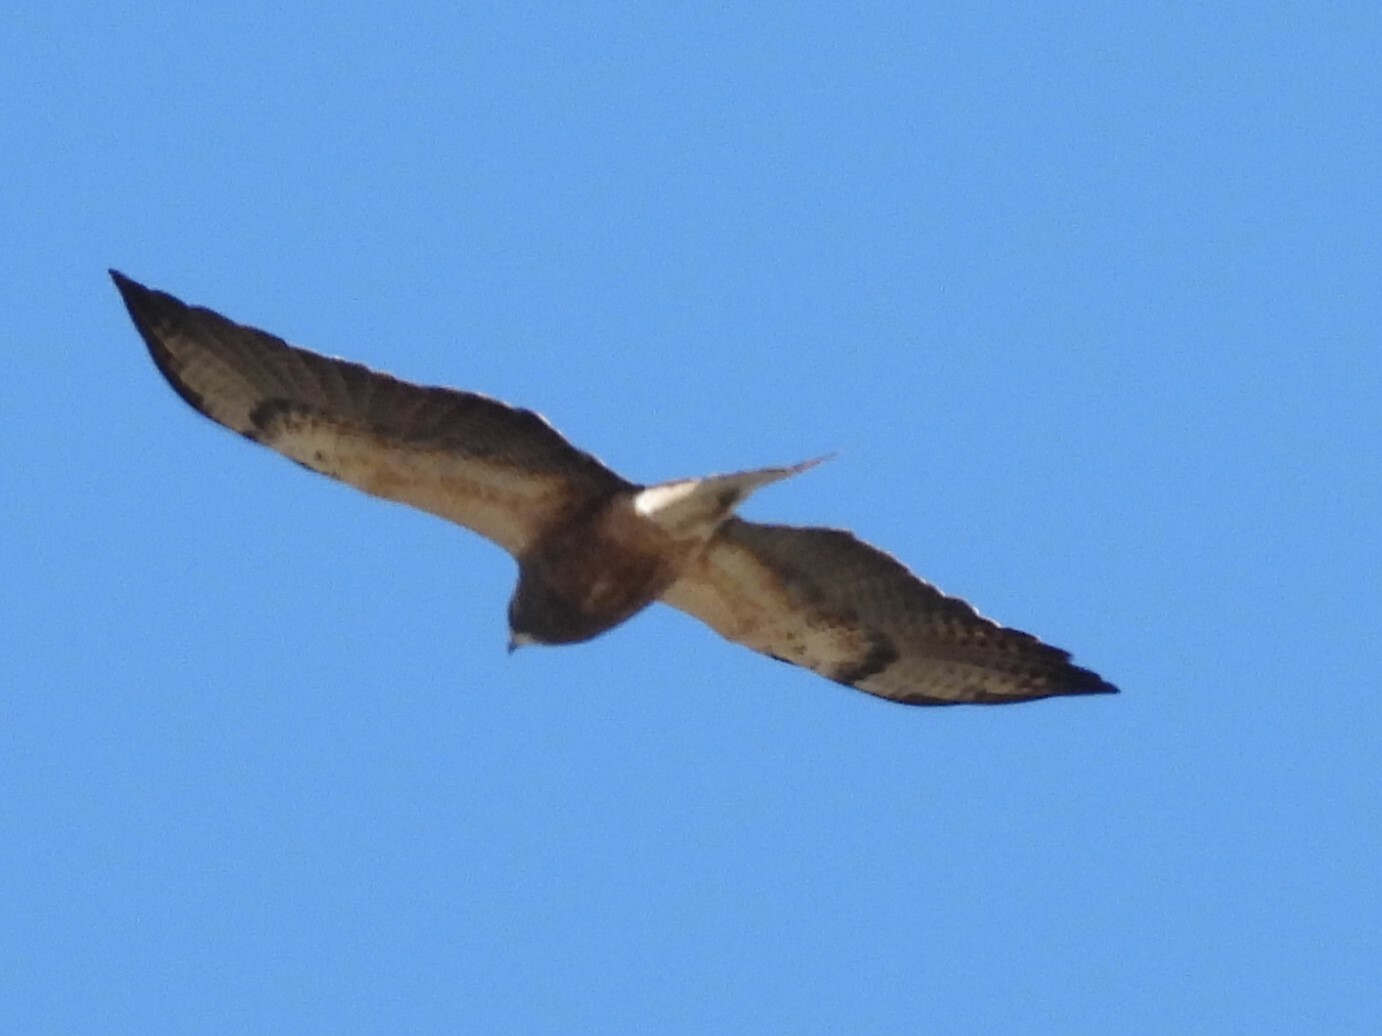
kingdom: Animalia
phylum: Chordata
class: Aves
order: Accipitriformes
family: Accipitridae
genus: Buteo
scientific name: Buteo swainsoni
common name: Swainson's hawk
